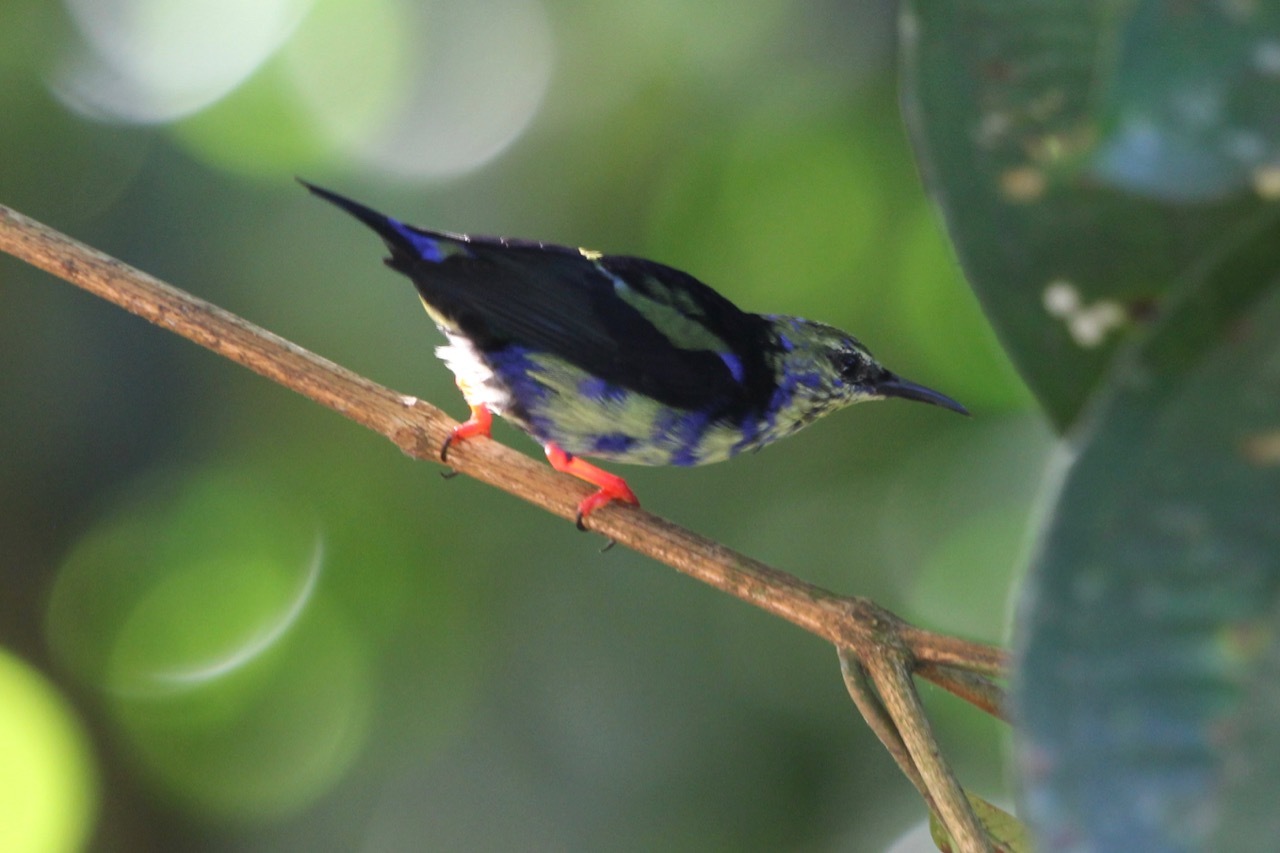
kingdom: Animalia
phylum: Chordata
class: Aves
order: Passeriformes
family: Thraupidae
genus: Cyanerpes
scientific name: Cyanerpes cyaneus
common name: Red-legged honeycreeper
